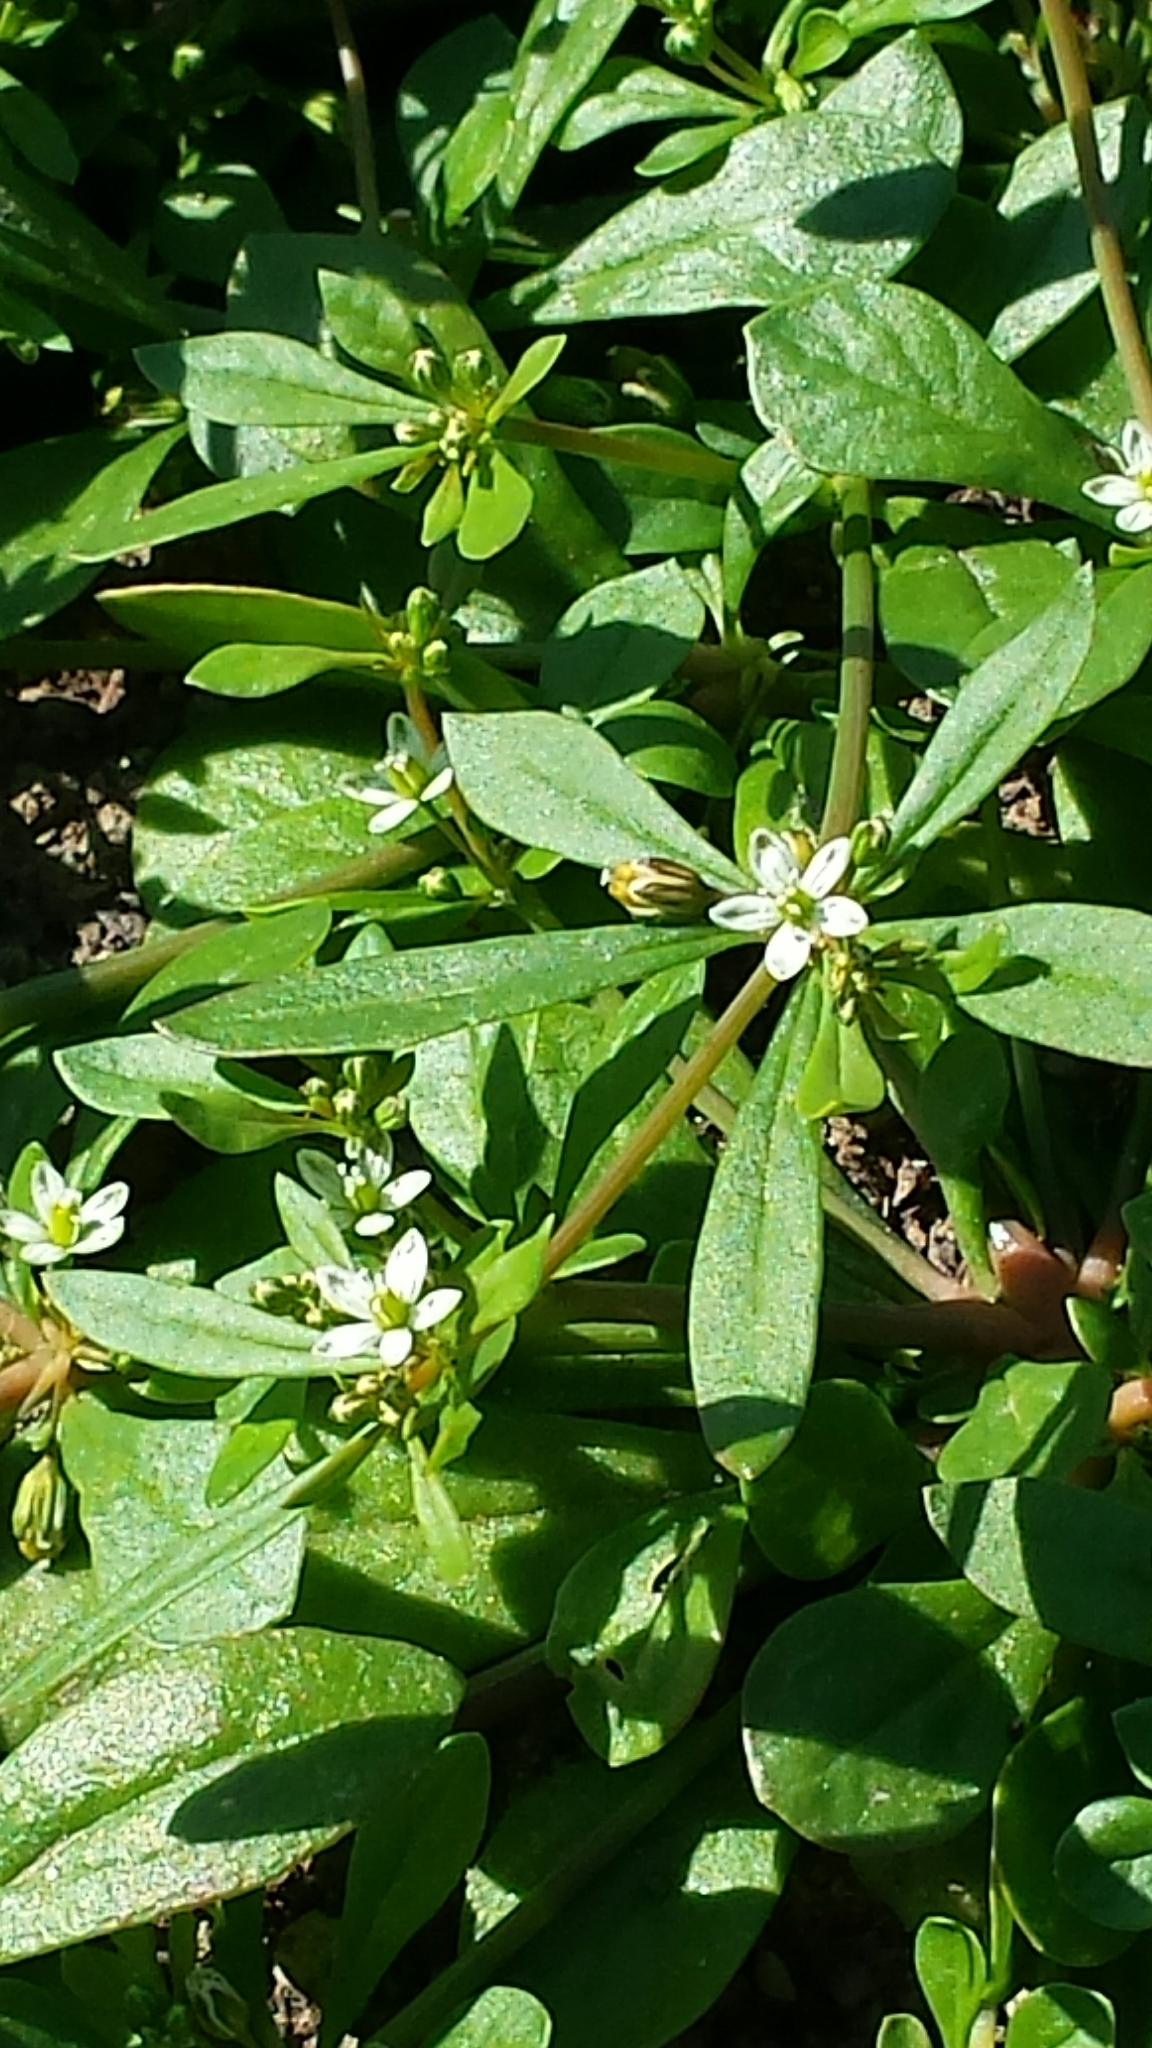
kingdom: Plantae
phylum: Tracheophyta
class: Magnoliopsida
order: Caryophyllales
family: Molluginaceae
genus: Mollugo
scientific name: Mollugo verticillata
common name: Green carpetweed
